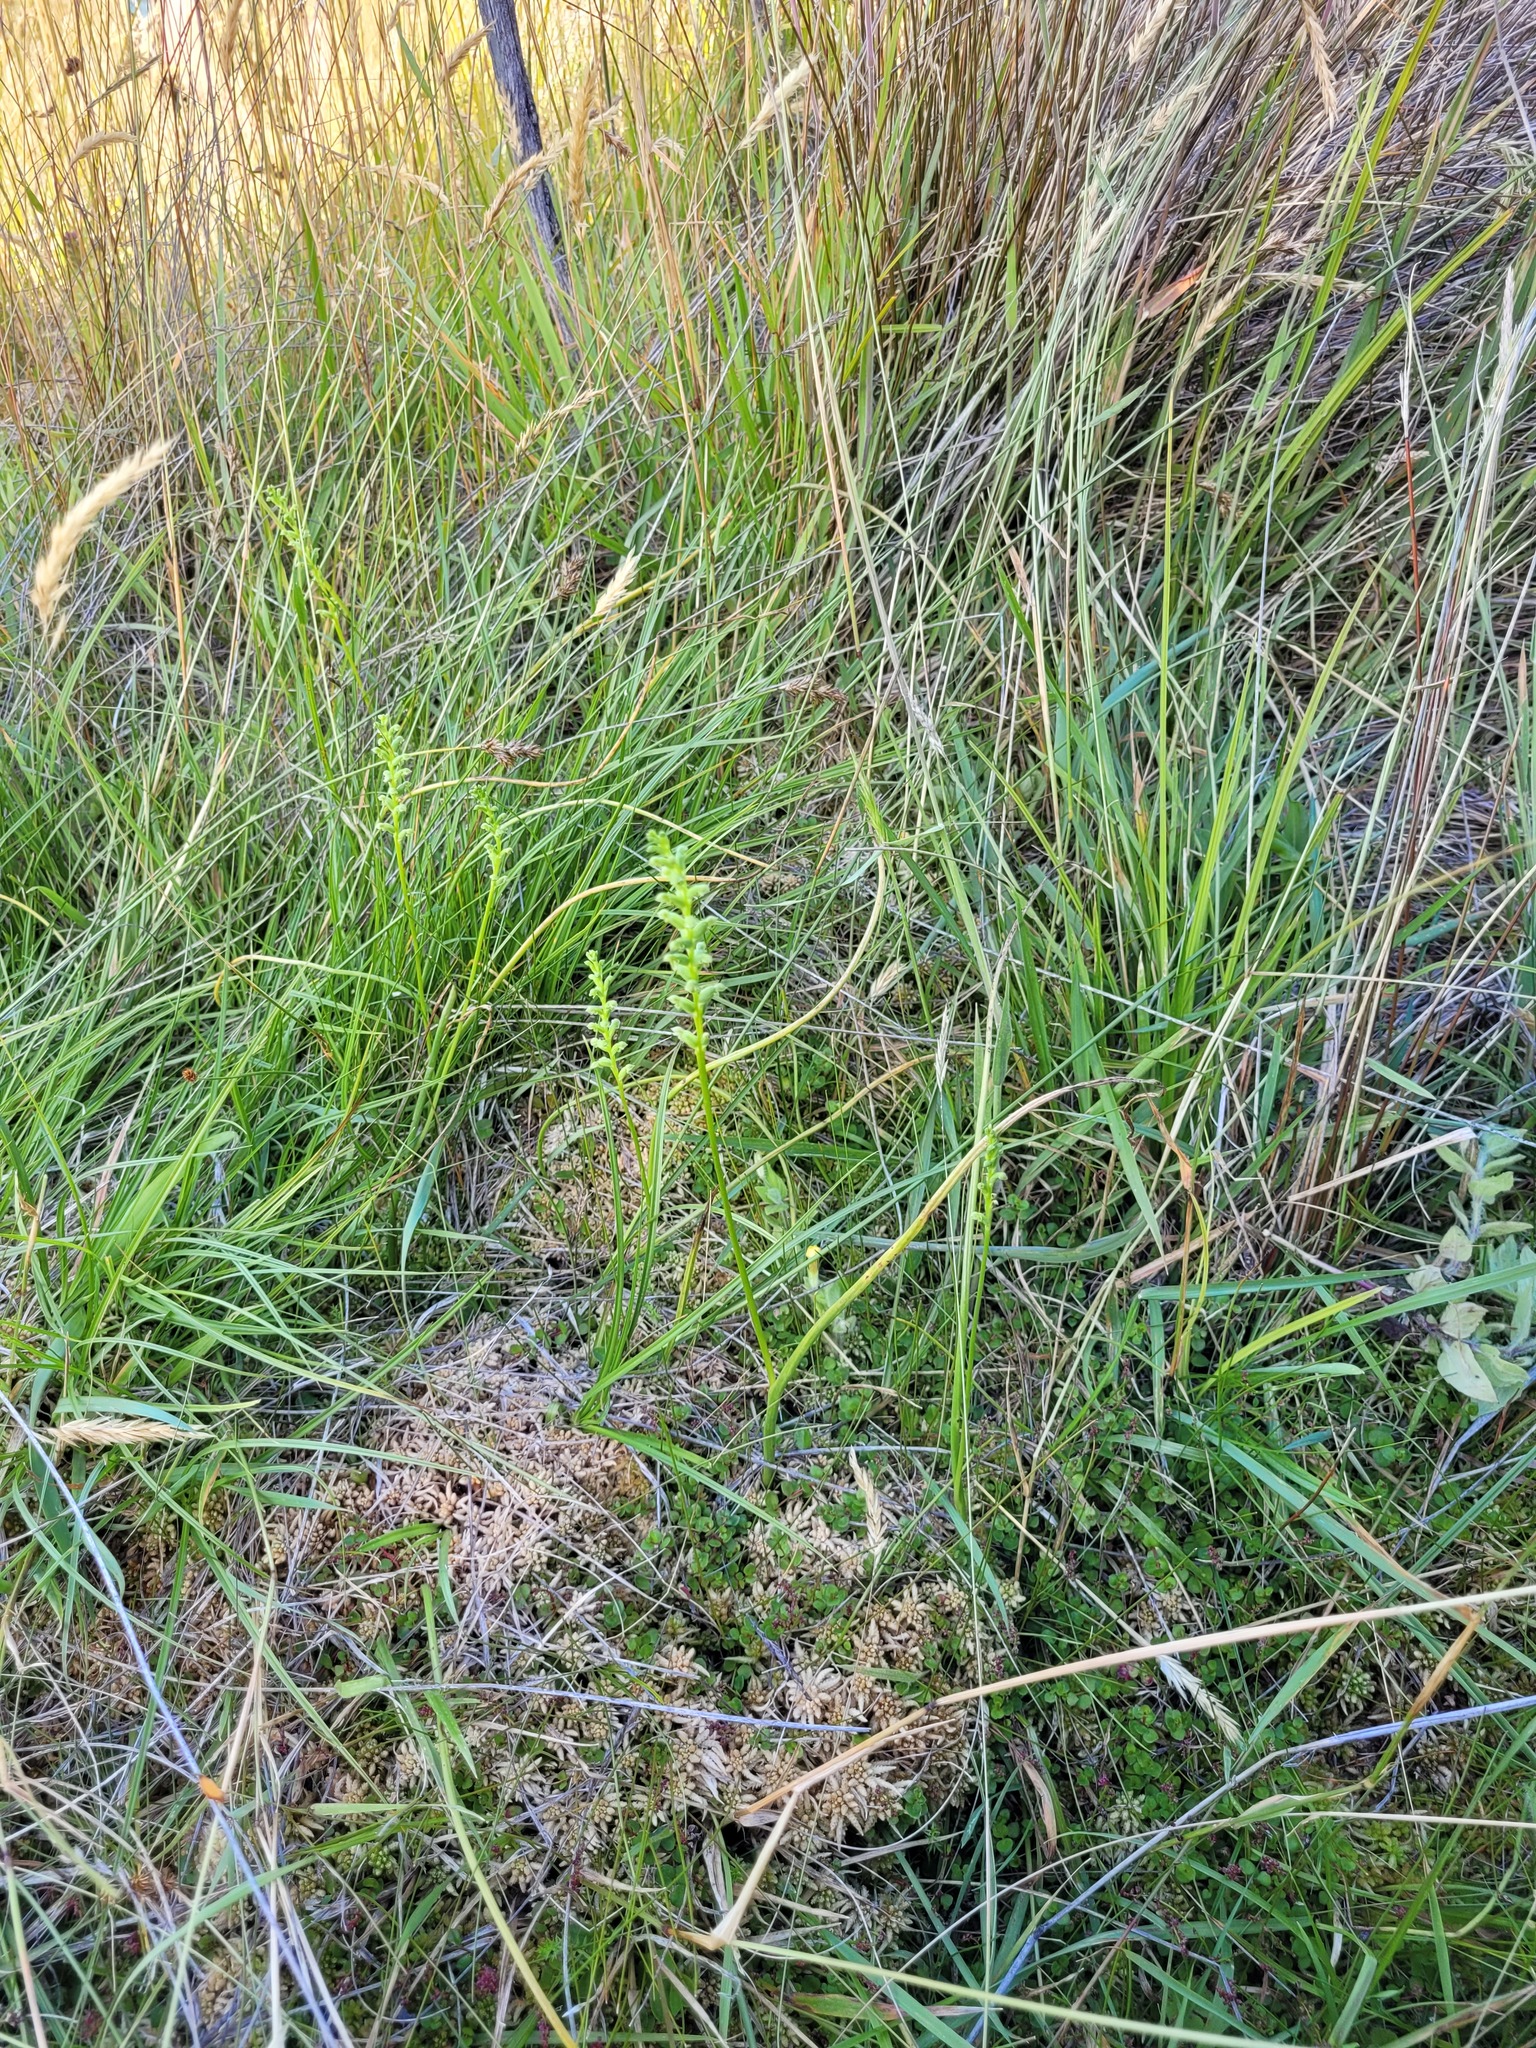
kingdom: Plantae
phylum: Tracheophyta
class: Liliopsida
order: Asparagales
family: Orchidaceae
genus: Microtis
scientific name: Microtis unifolia
